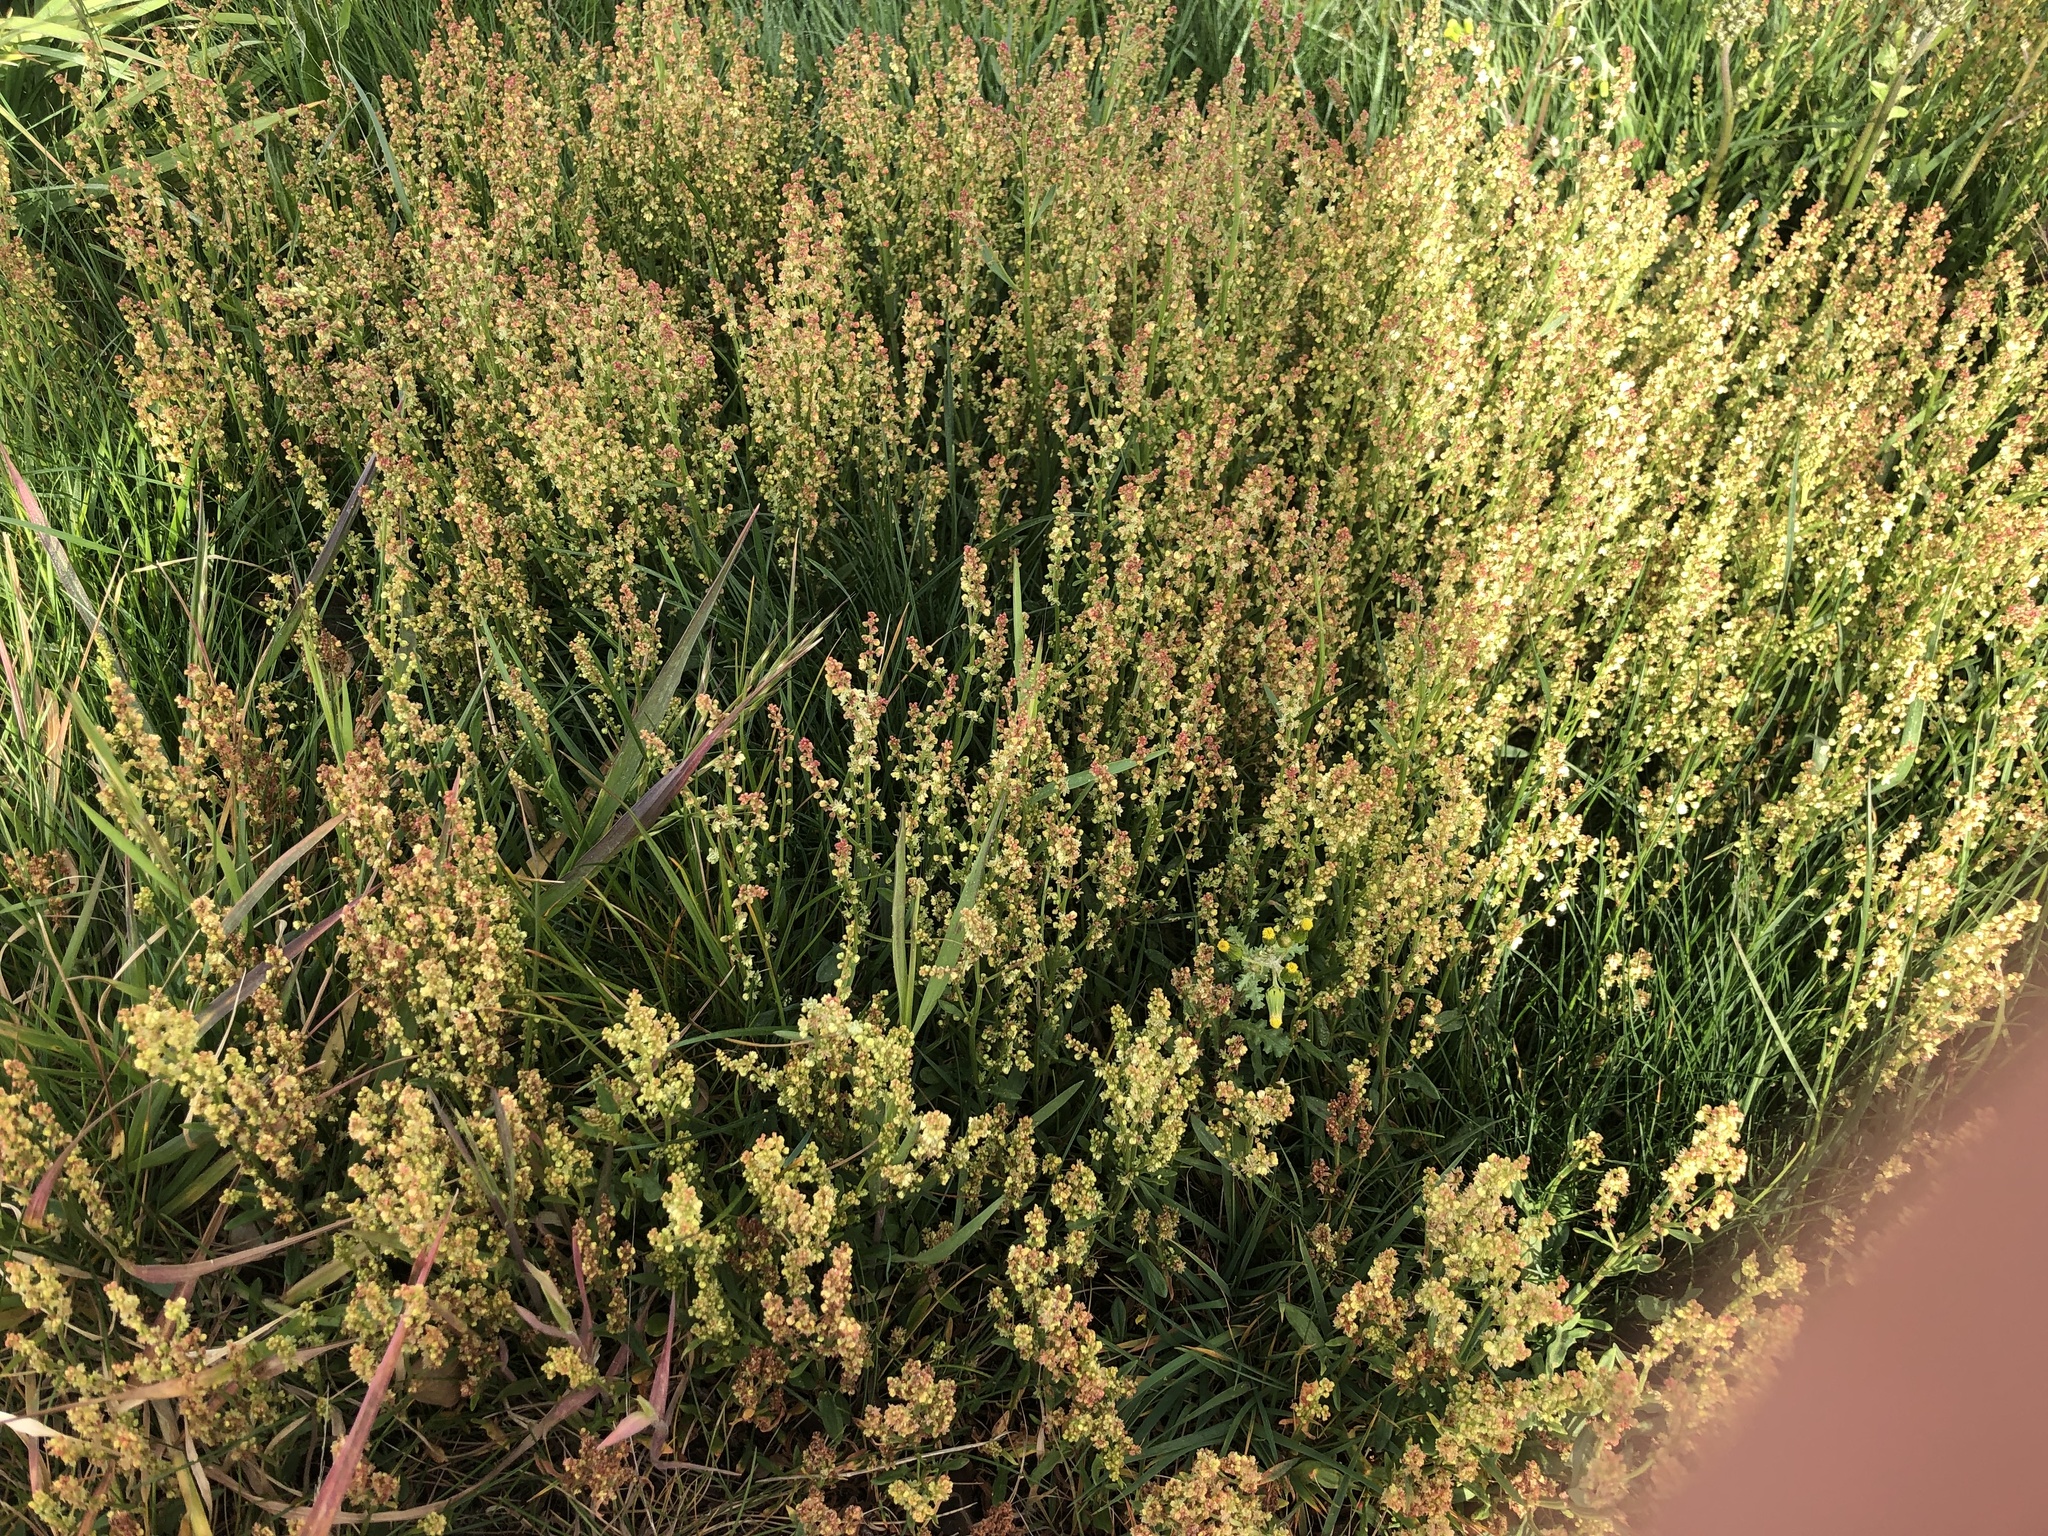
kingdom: Plantae
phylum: Tracheophyta
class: Magnoliopsida
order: Caryophyllales
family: Polygonaceae
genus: Rumex
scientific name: Rumex acetosella
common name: Common sheep sorrel
